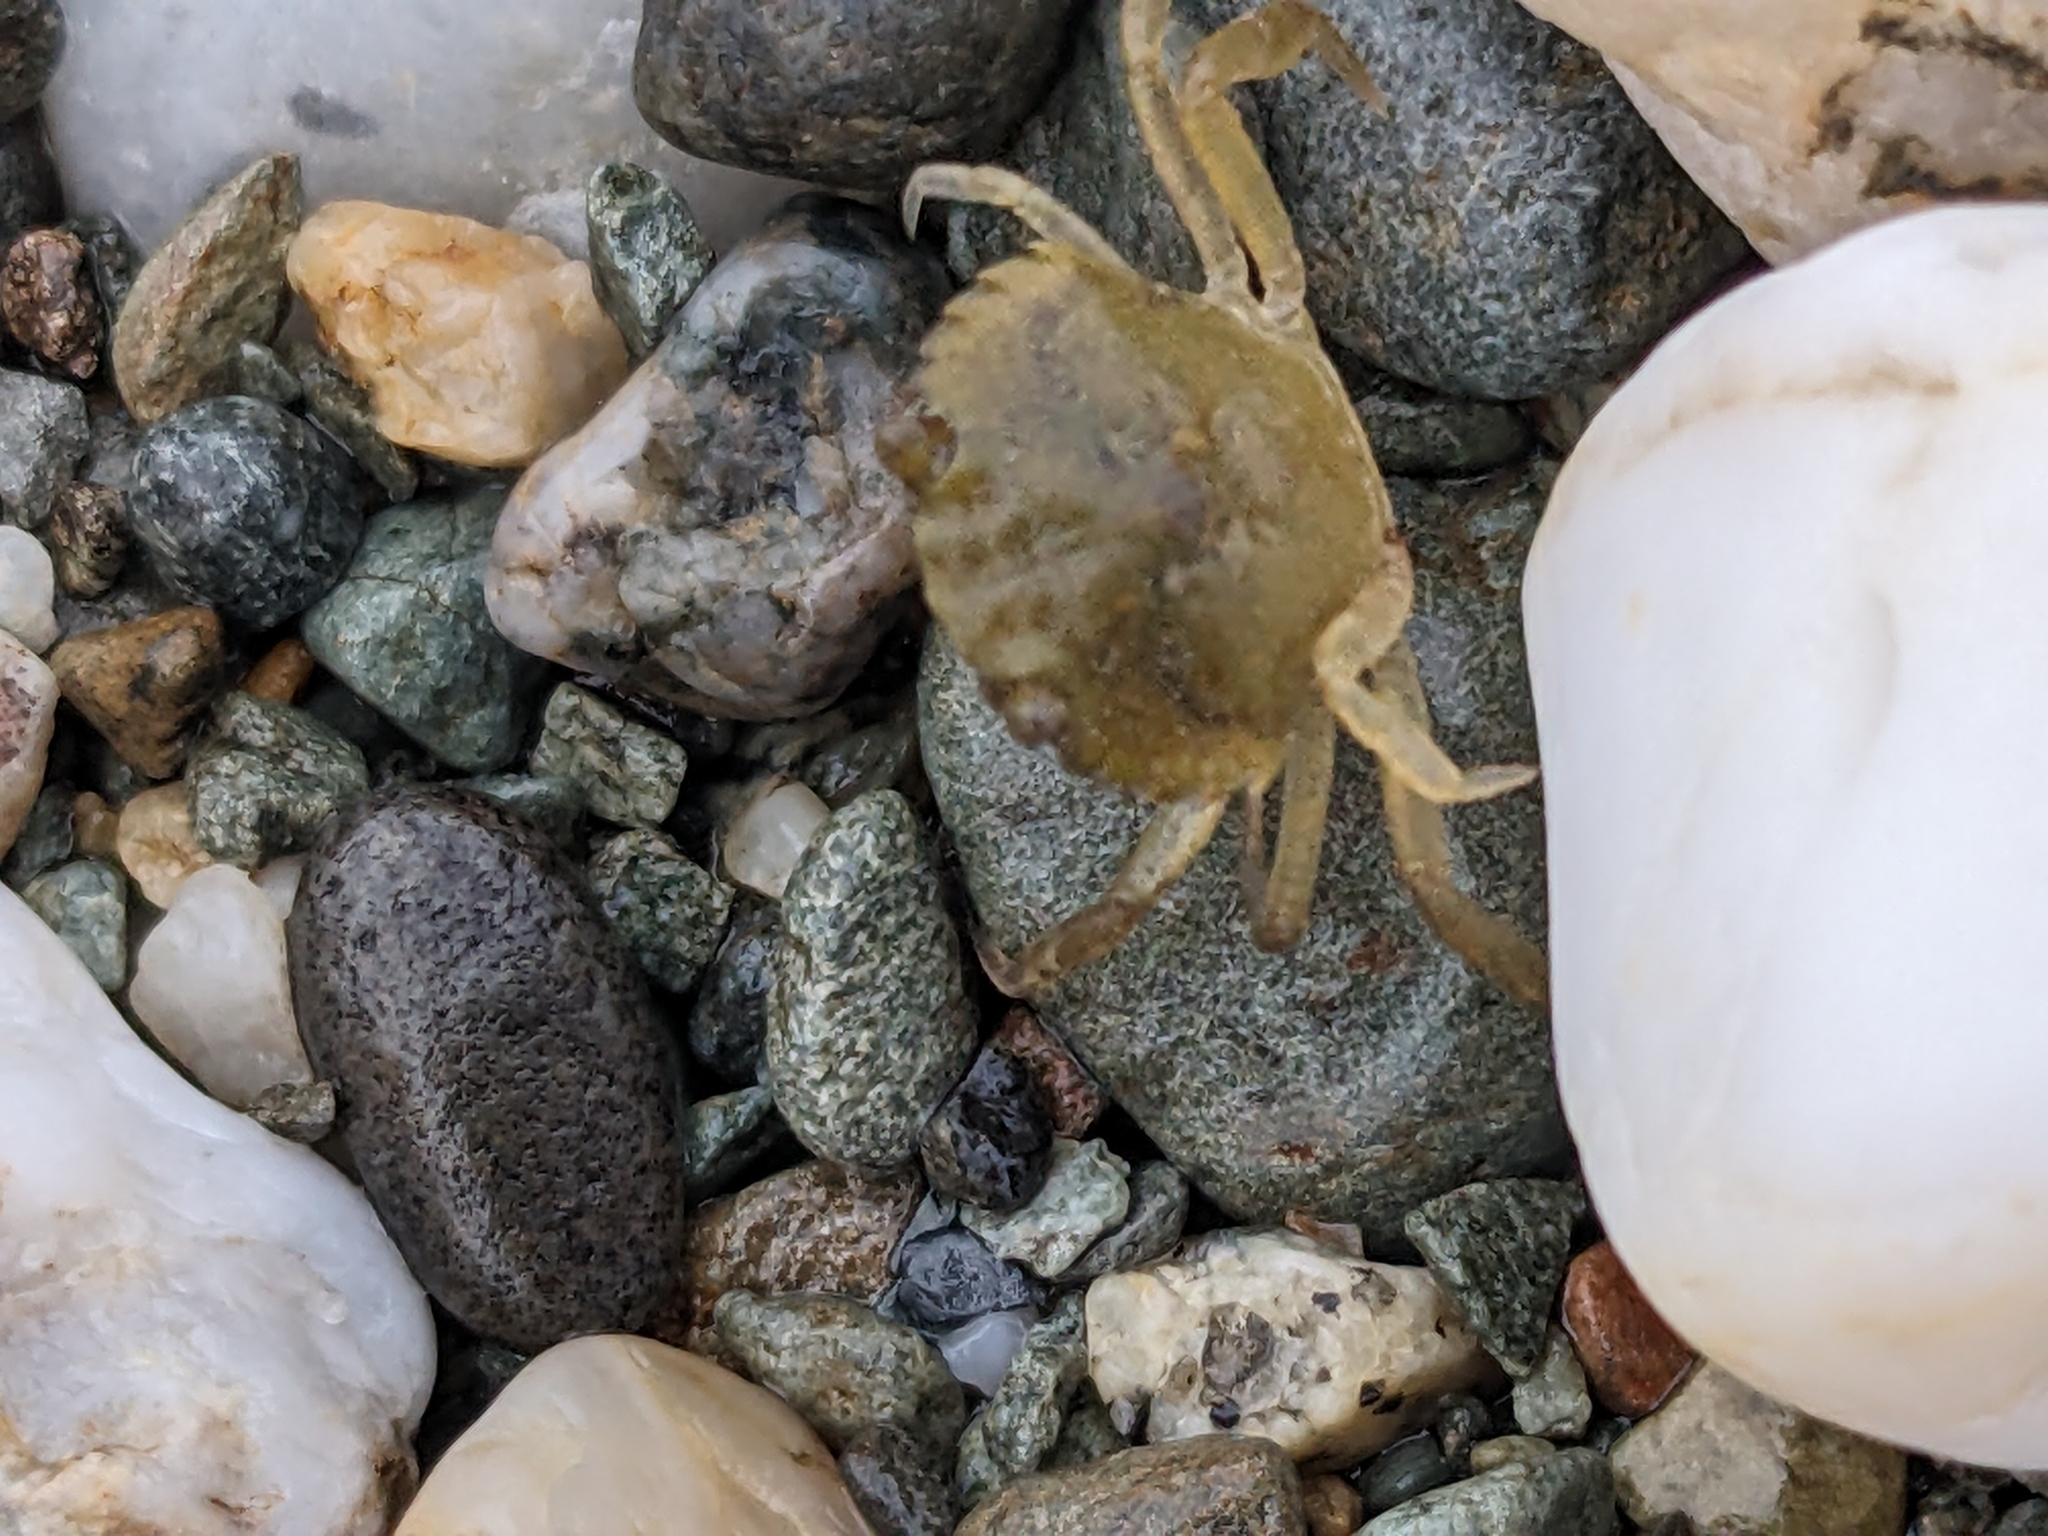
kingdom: Animalia
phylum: Arthropoda
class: Malacostraca
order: Decapoda
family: Carcinidae
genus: Carcinus
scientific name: Carcinus maenas
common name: European green crab
